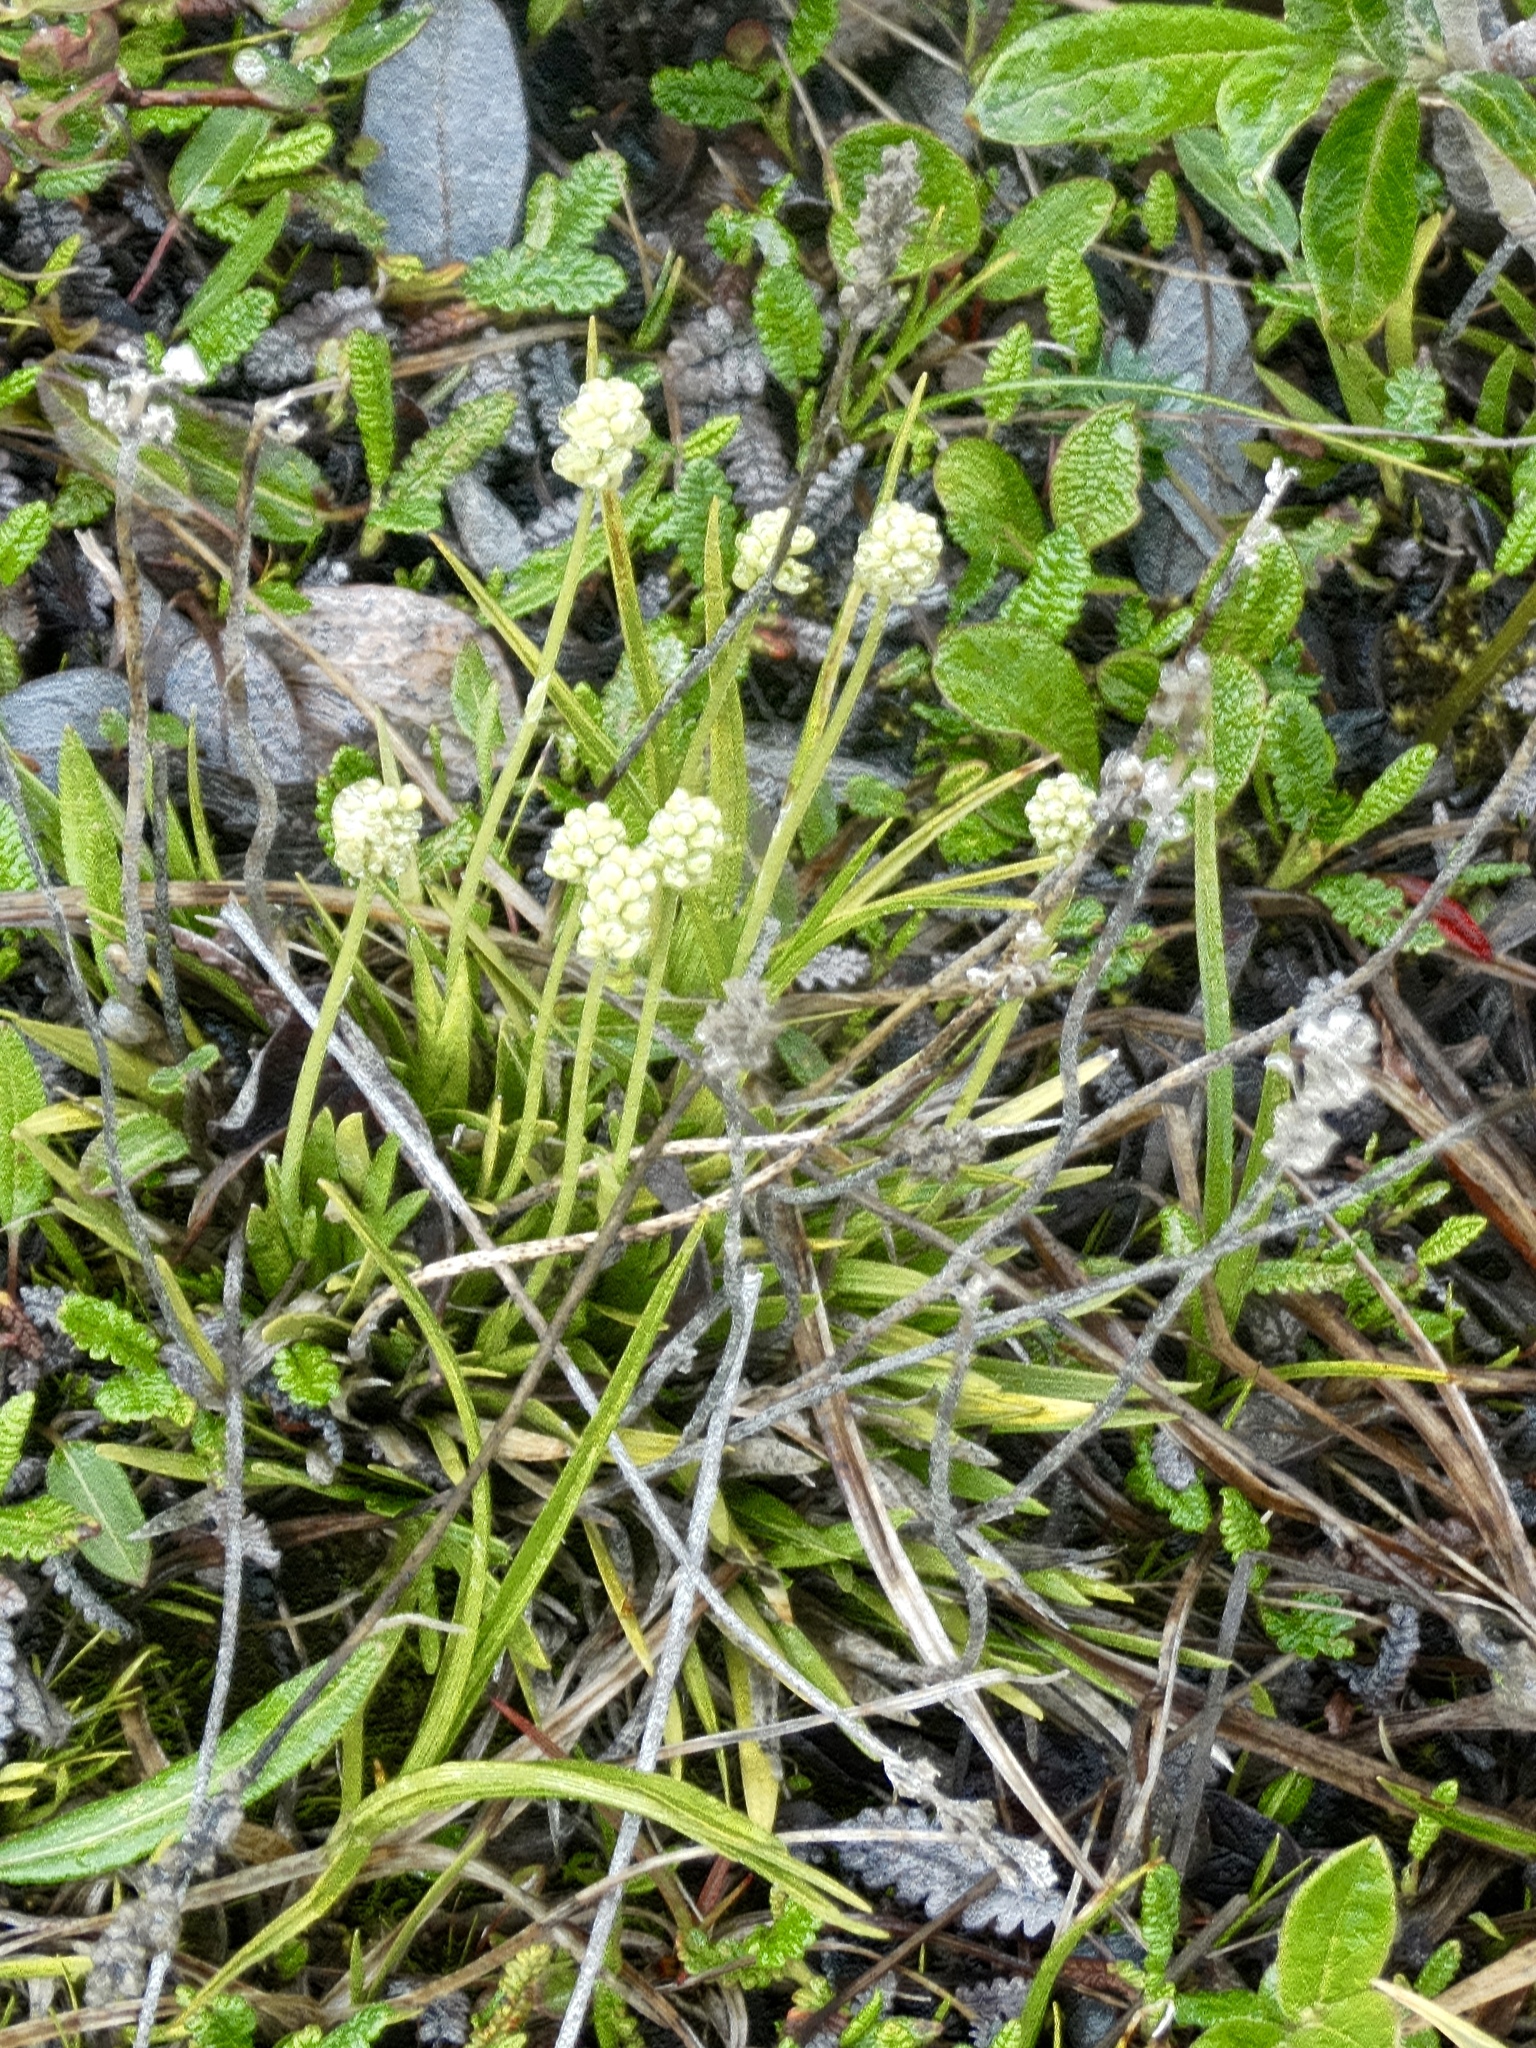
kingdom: Plantae
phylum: Tracheophyta
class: Liliopsida
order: Alismatales
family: Tofieldiaceae
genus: Tofieldia
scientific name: Tofieldia pusilla
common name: Scottish false asphodel
